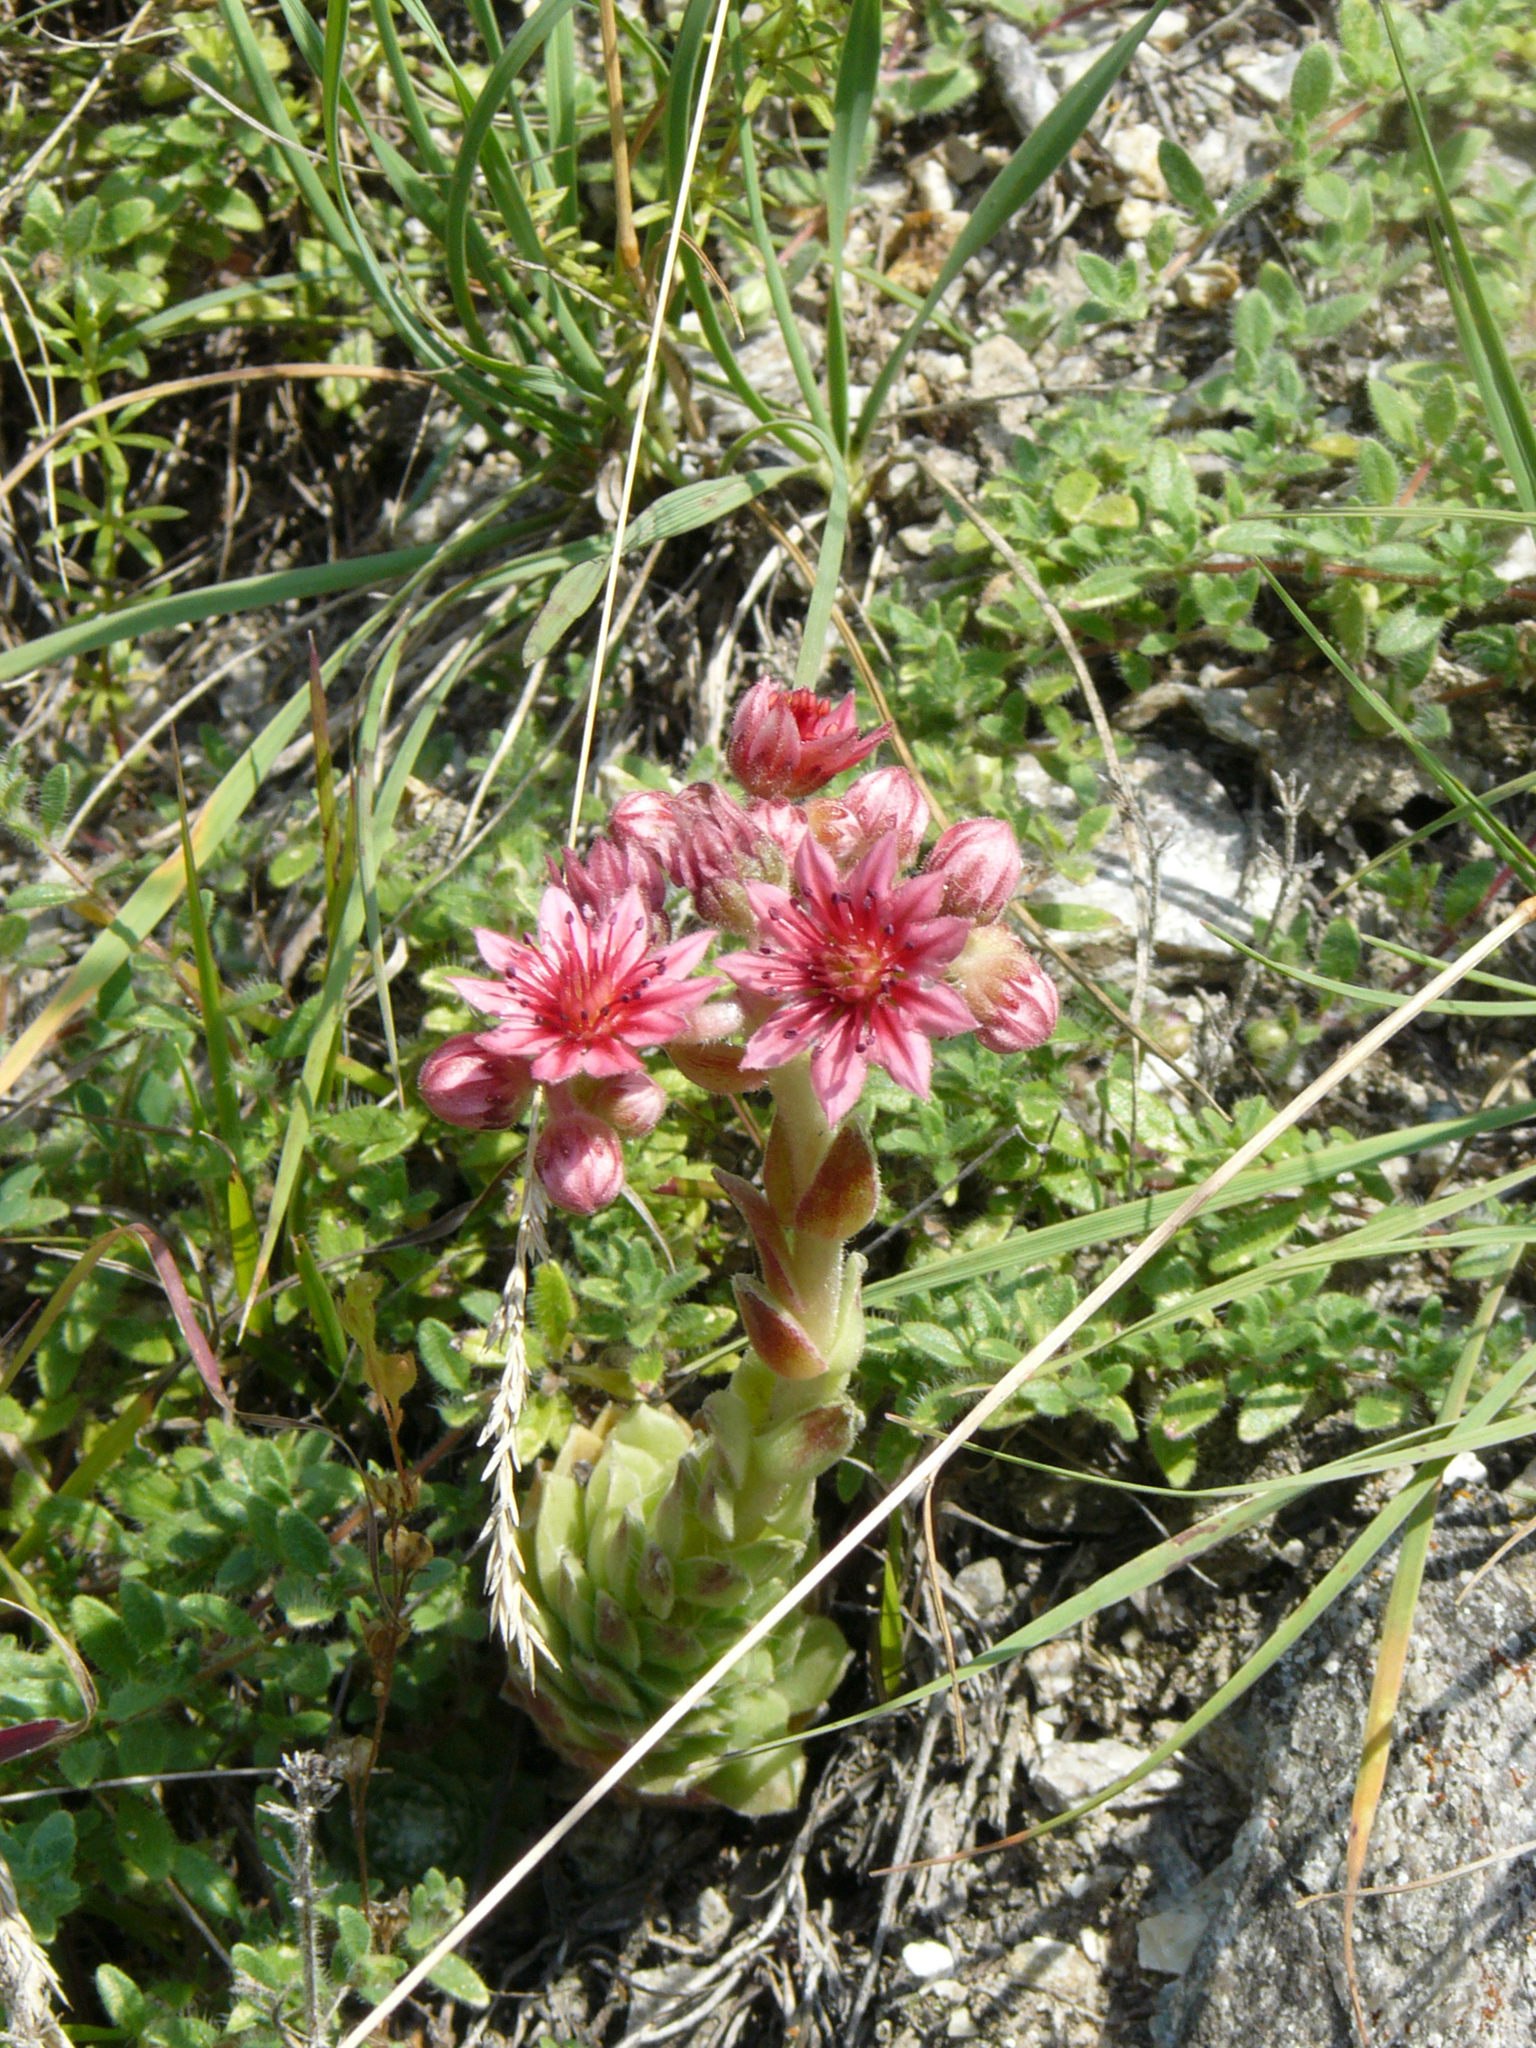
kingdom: Plantae
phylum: Tracheophyta
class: Magnoliopsida
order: Saxifragales
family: Crassulaceae
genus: Sempervivum
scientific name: Sempervivum arachnoideum
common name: Cobweb house-leek
